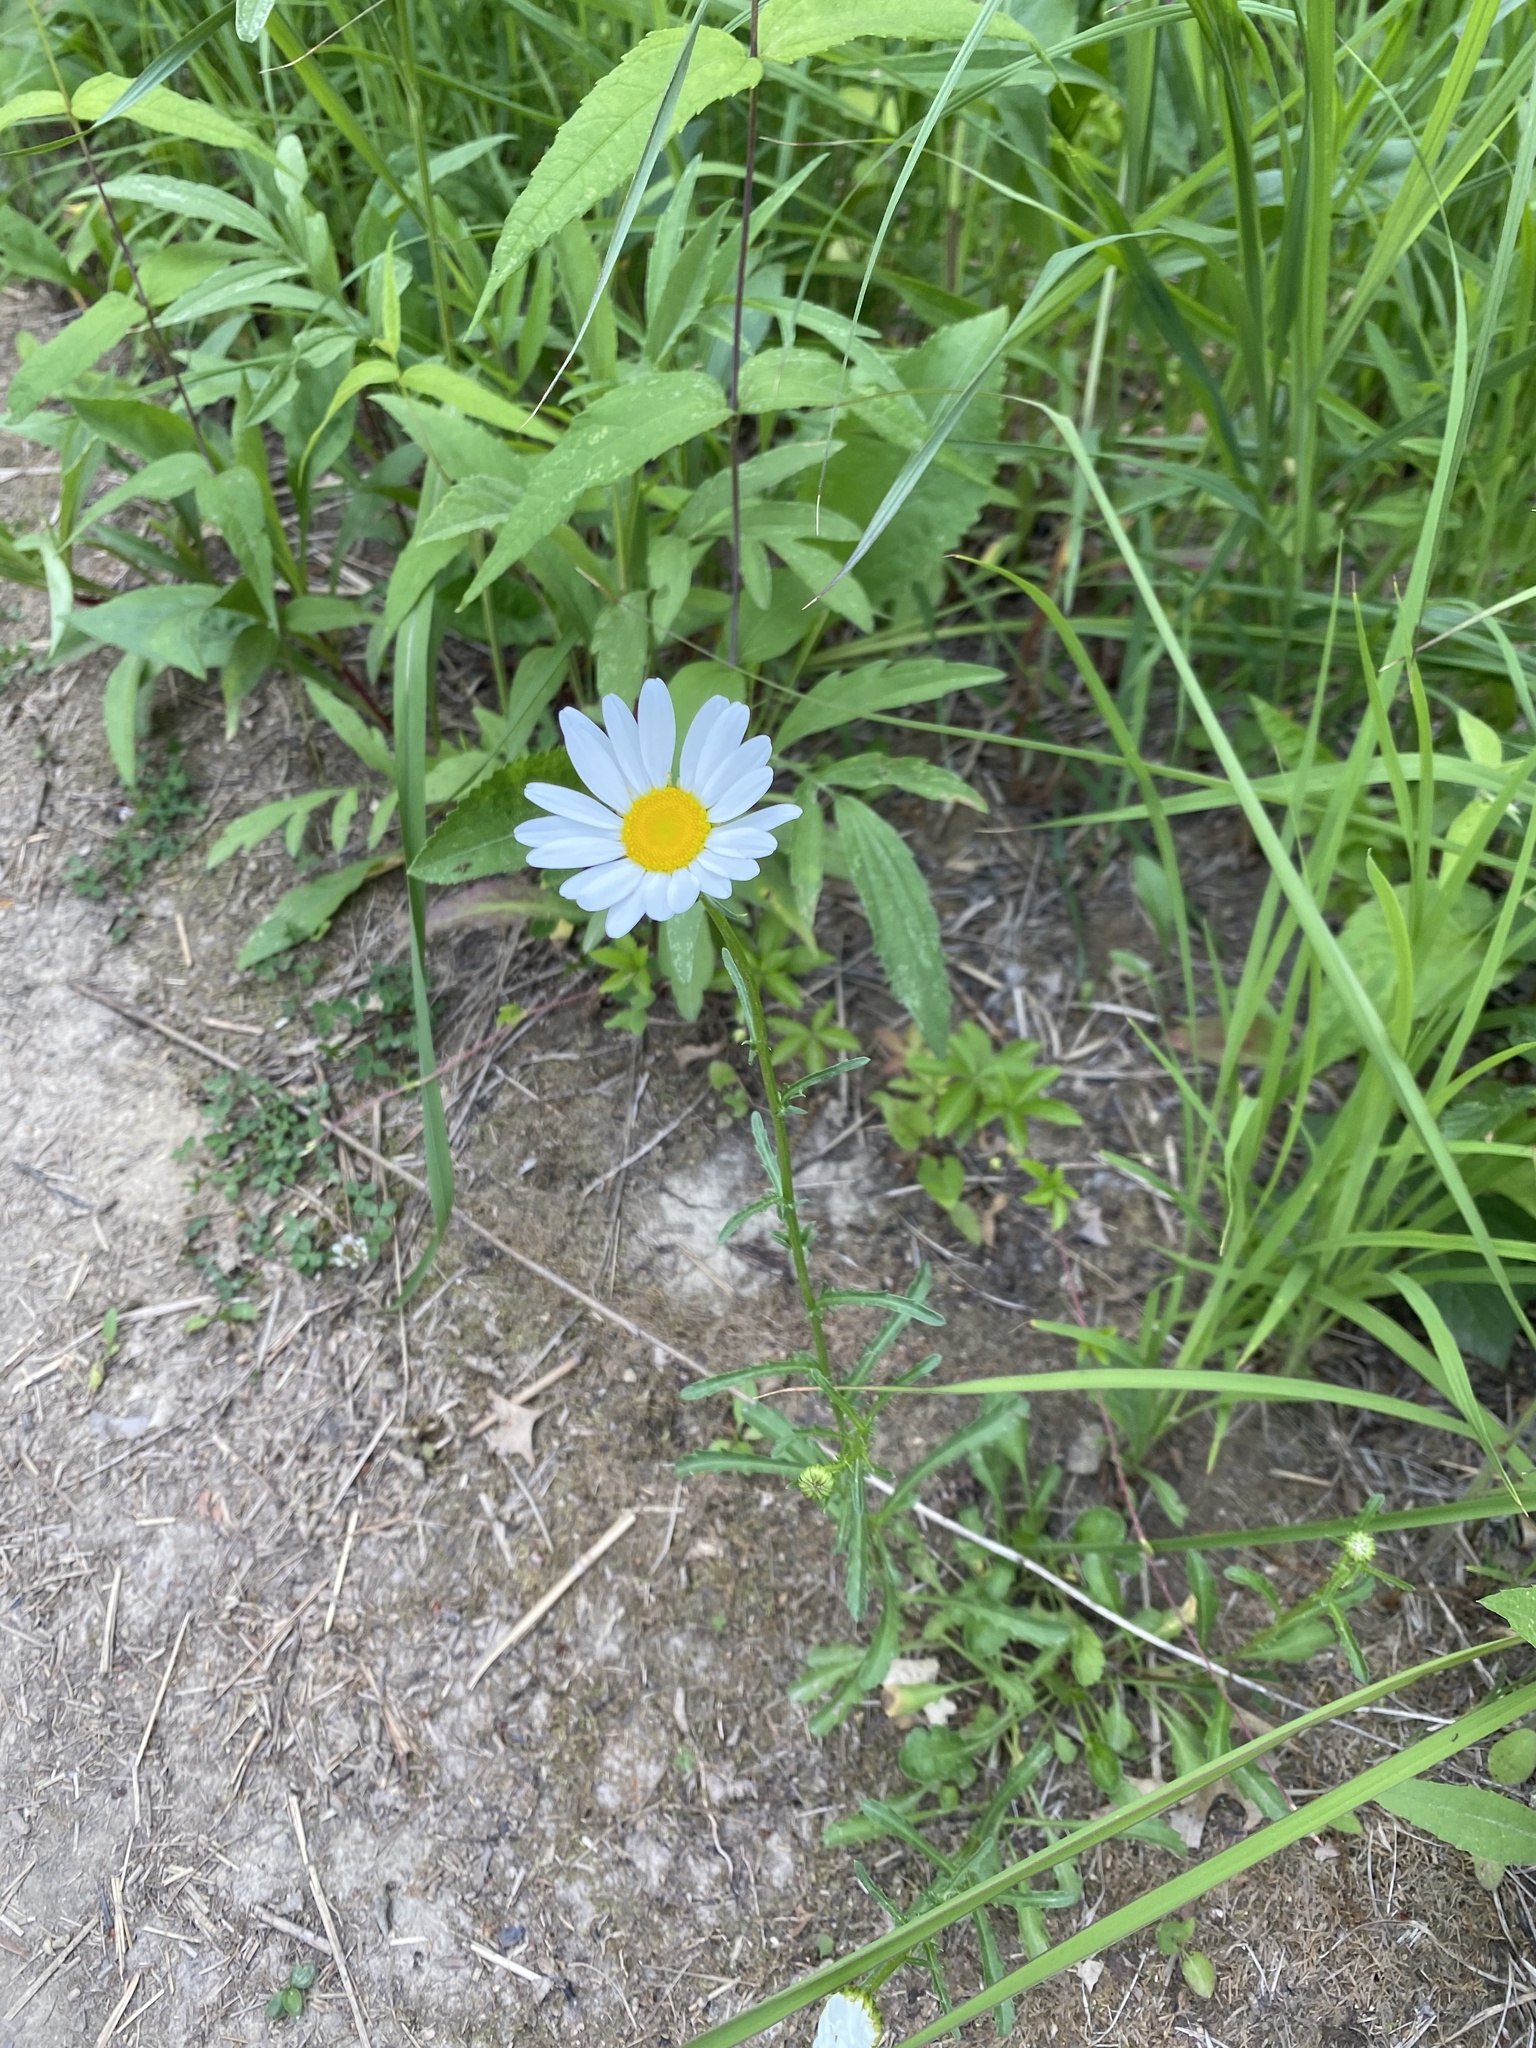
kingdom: Plantae
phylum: Tracheophyta
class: Magnoliopsida
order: Asterales
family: Asteraceae
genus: Leucanthemum
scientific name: Leucanthemum vulgare
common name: Oxeye daisy
